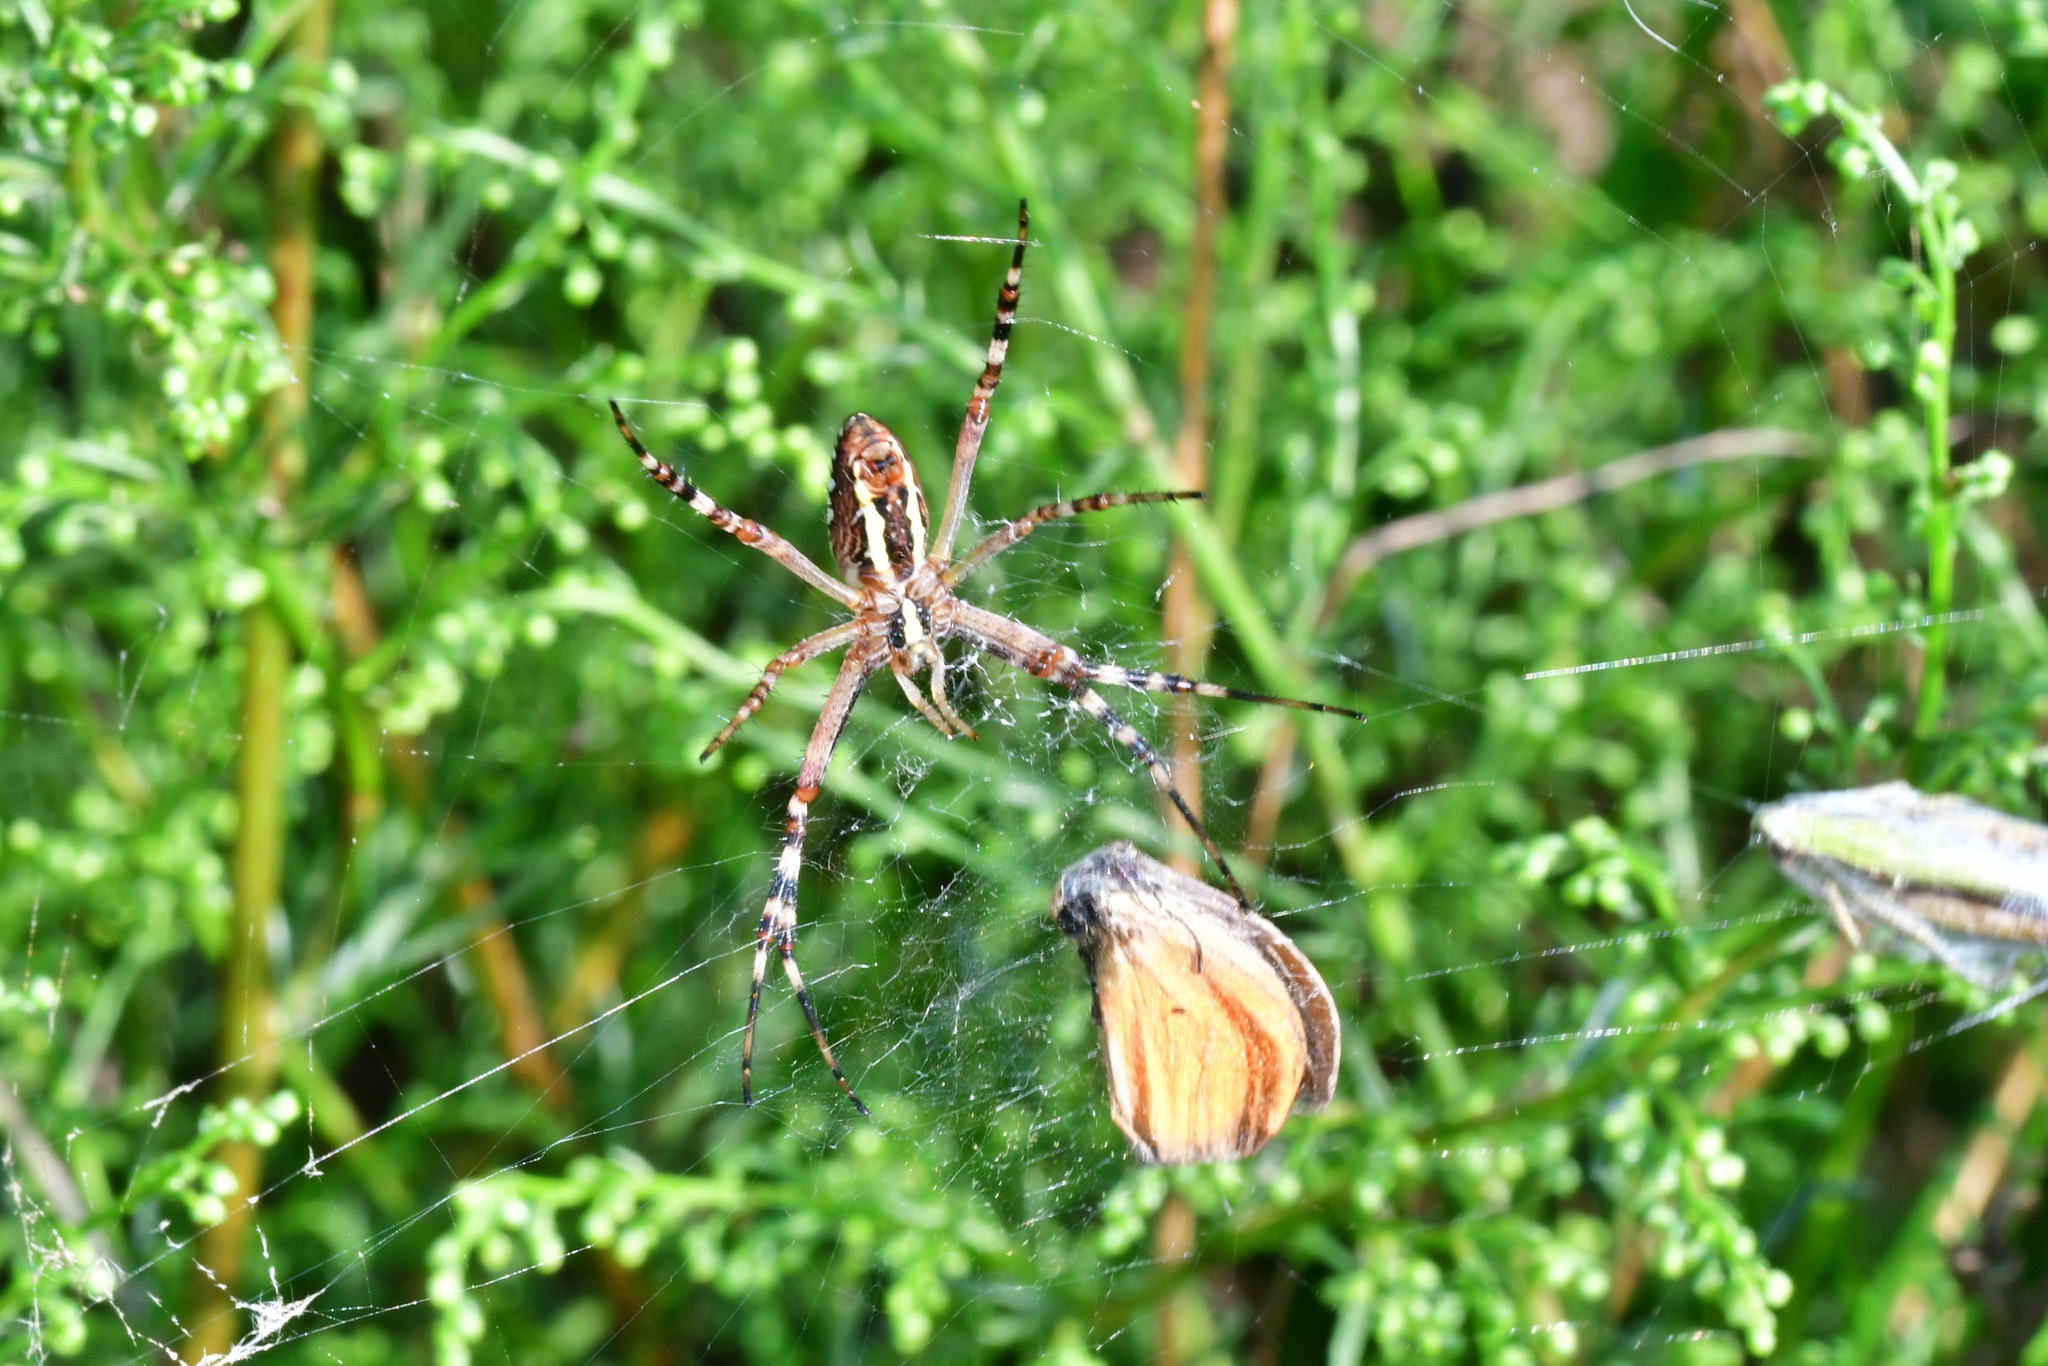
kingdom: Animalia
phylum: Arthropoda
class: Arachnida
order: Araneae
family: Araneidae
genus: Argiope
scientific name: Argiope bruennichi
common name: Wasp spider
